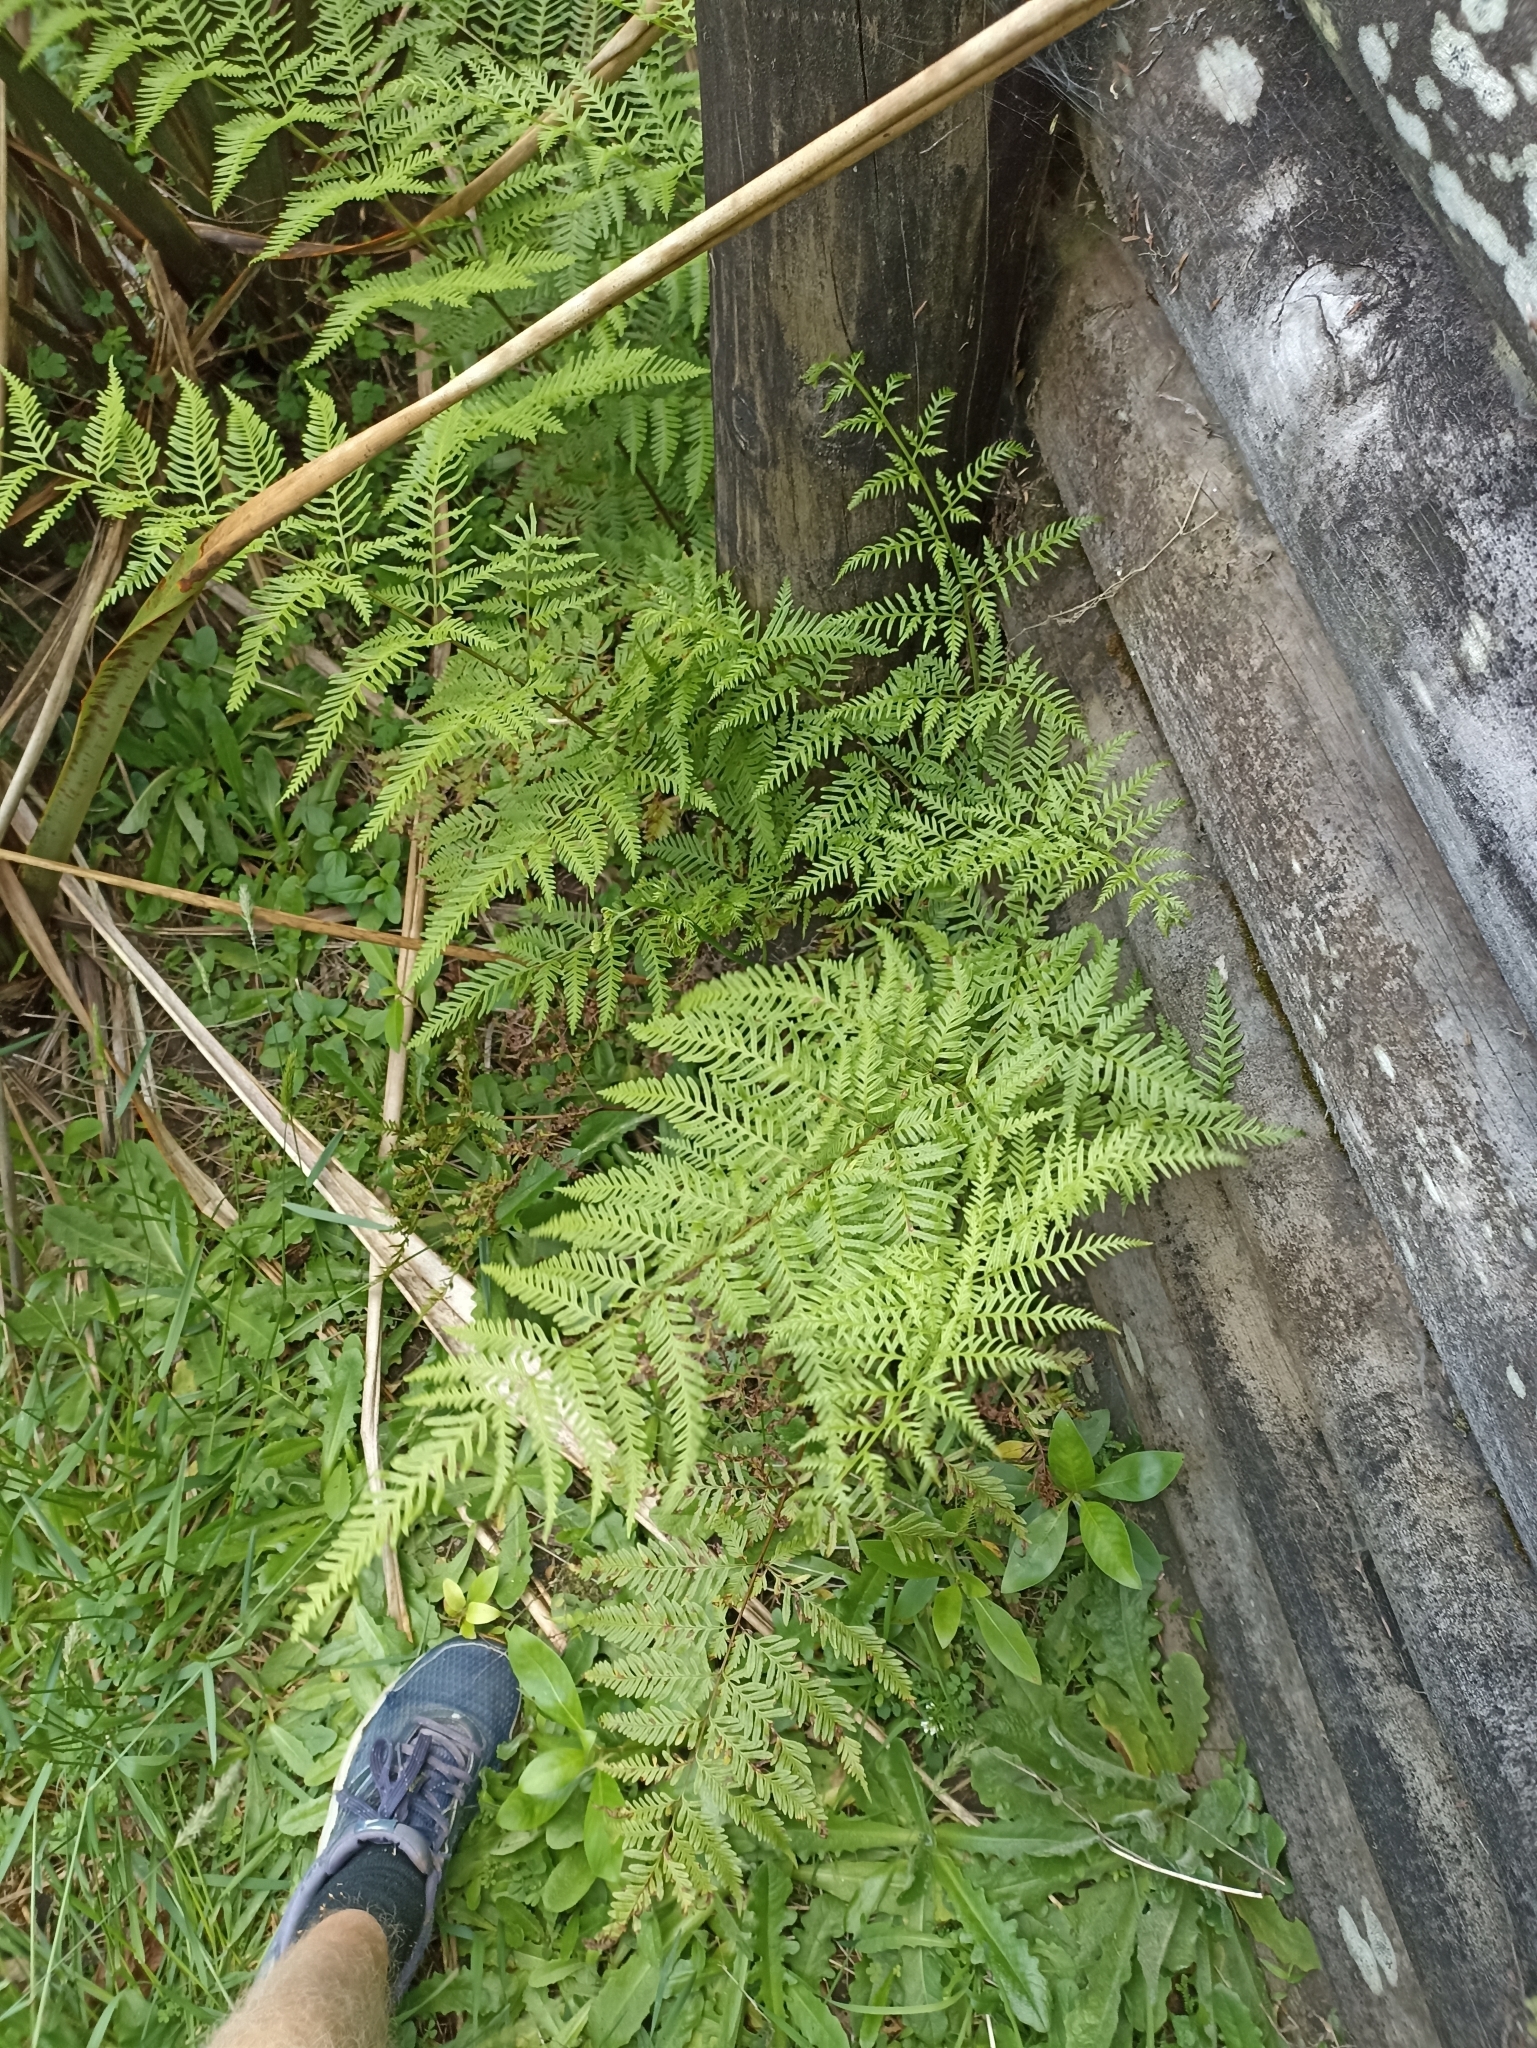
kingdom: Plantae
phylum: Tracheophyta
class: Polypodiopsida
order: Polypodiales
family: Pteridaceae
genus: Pteris
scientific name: Pteris tremula
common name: Australian brake
